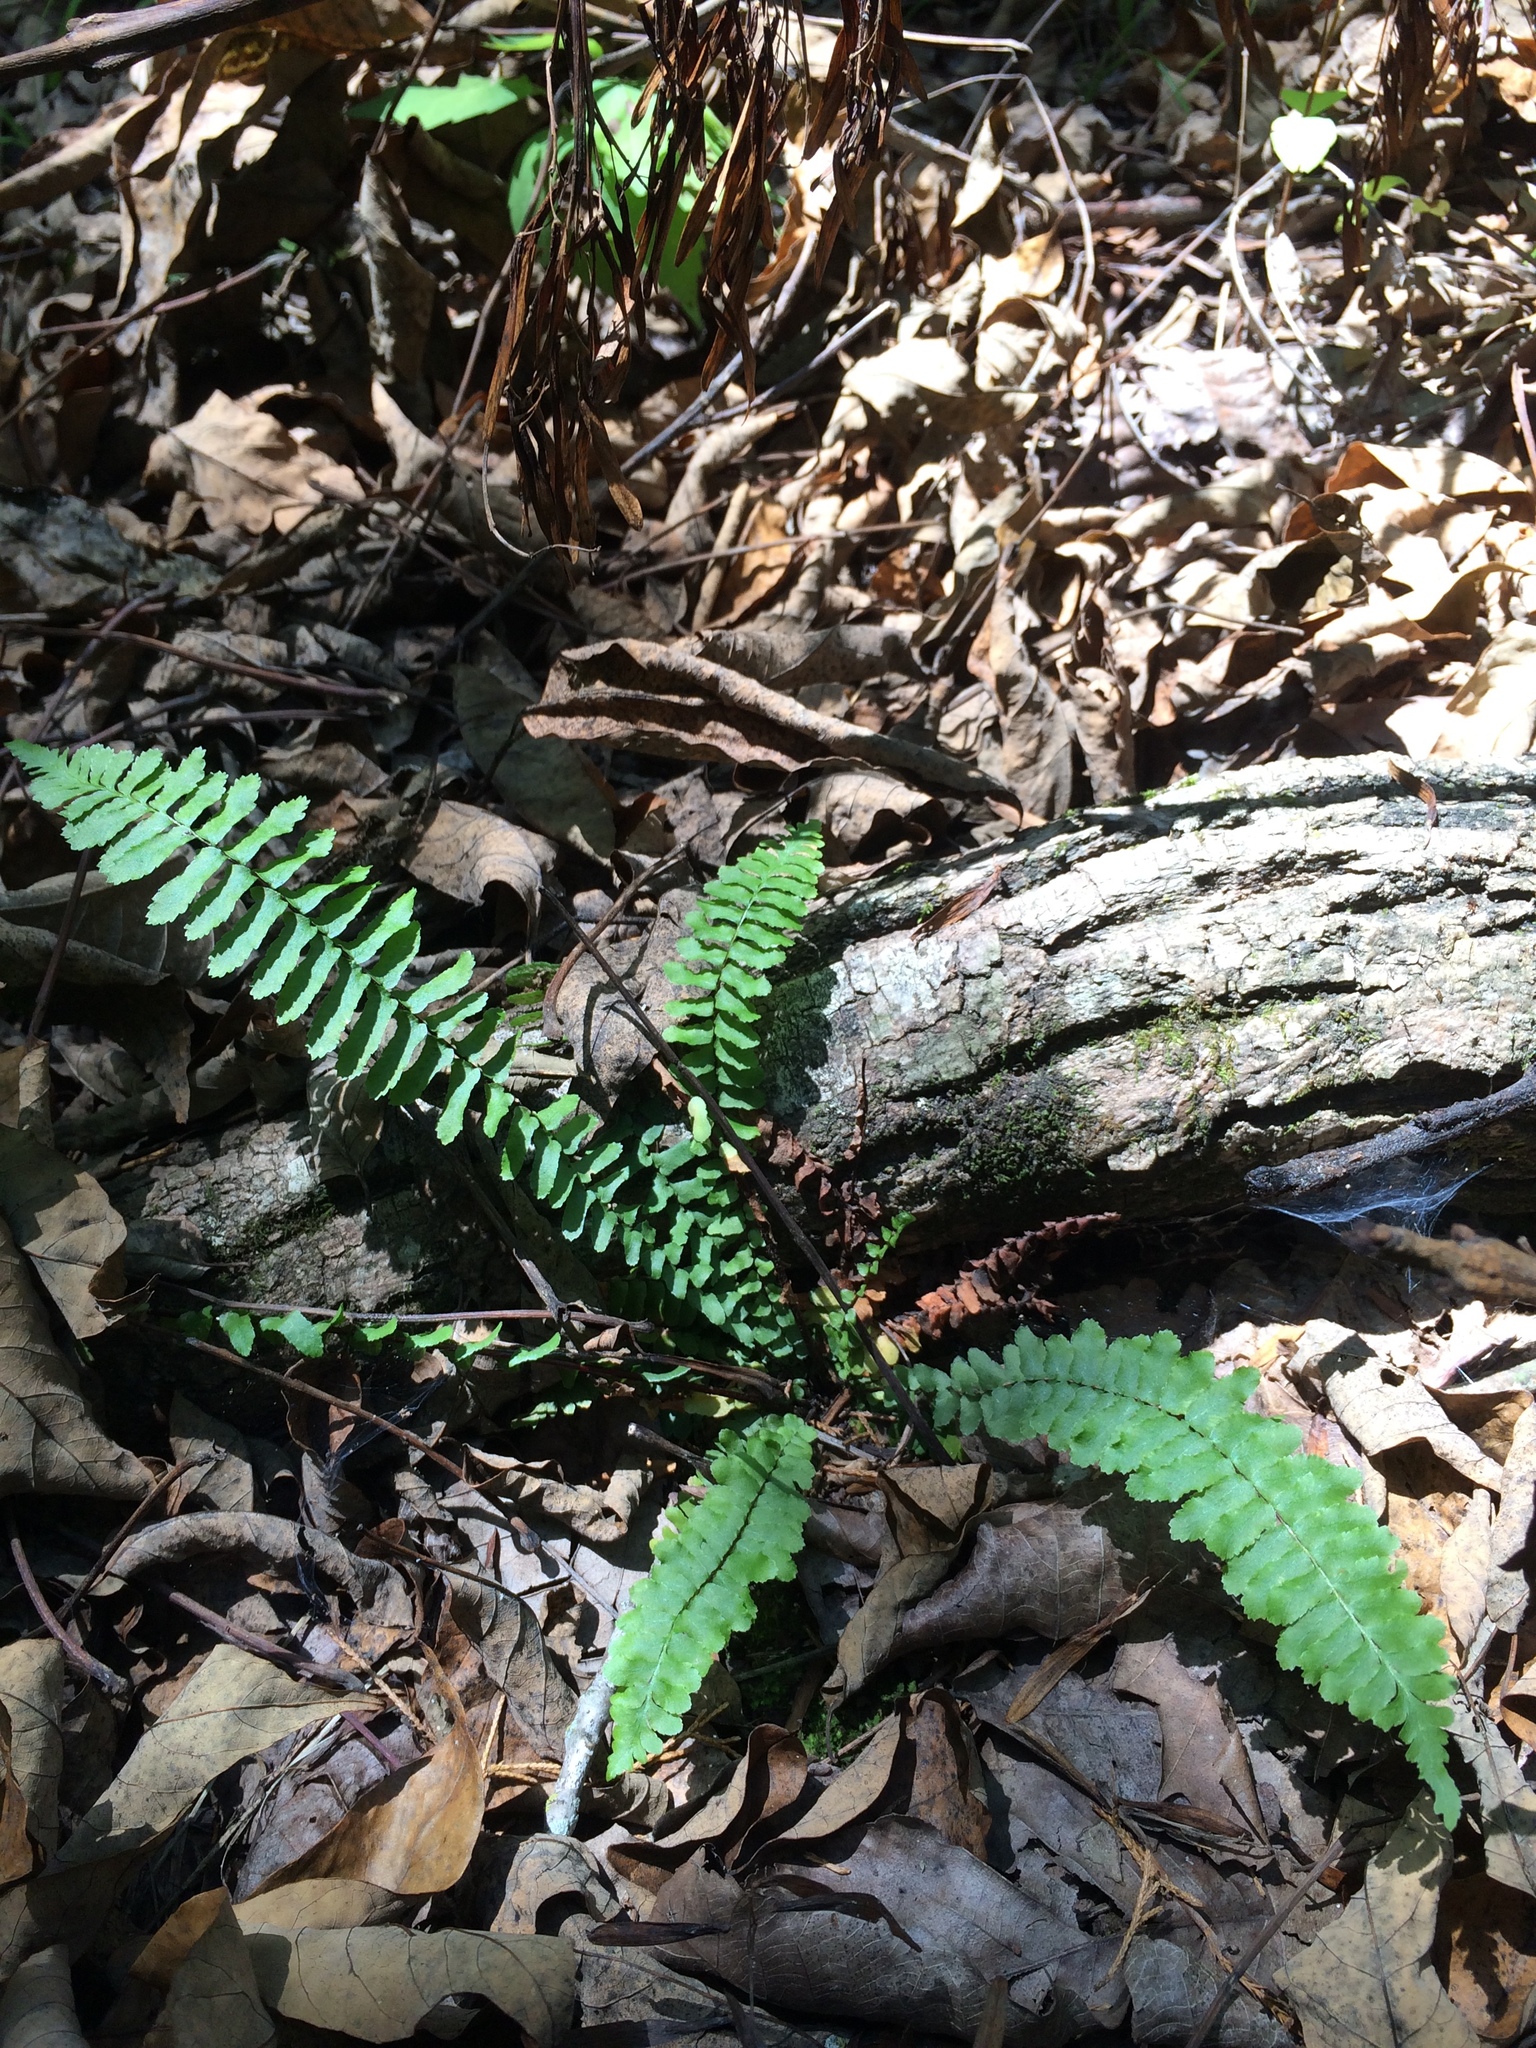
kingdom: Plantae
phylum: Tracheophyta
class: Polypodiopsida
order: Polypodiales
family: Aspleniaceae
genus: Asplenium
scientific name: Asplenium platyneuron
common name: Ebony spleenwort
